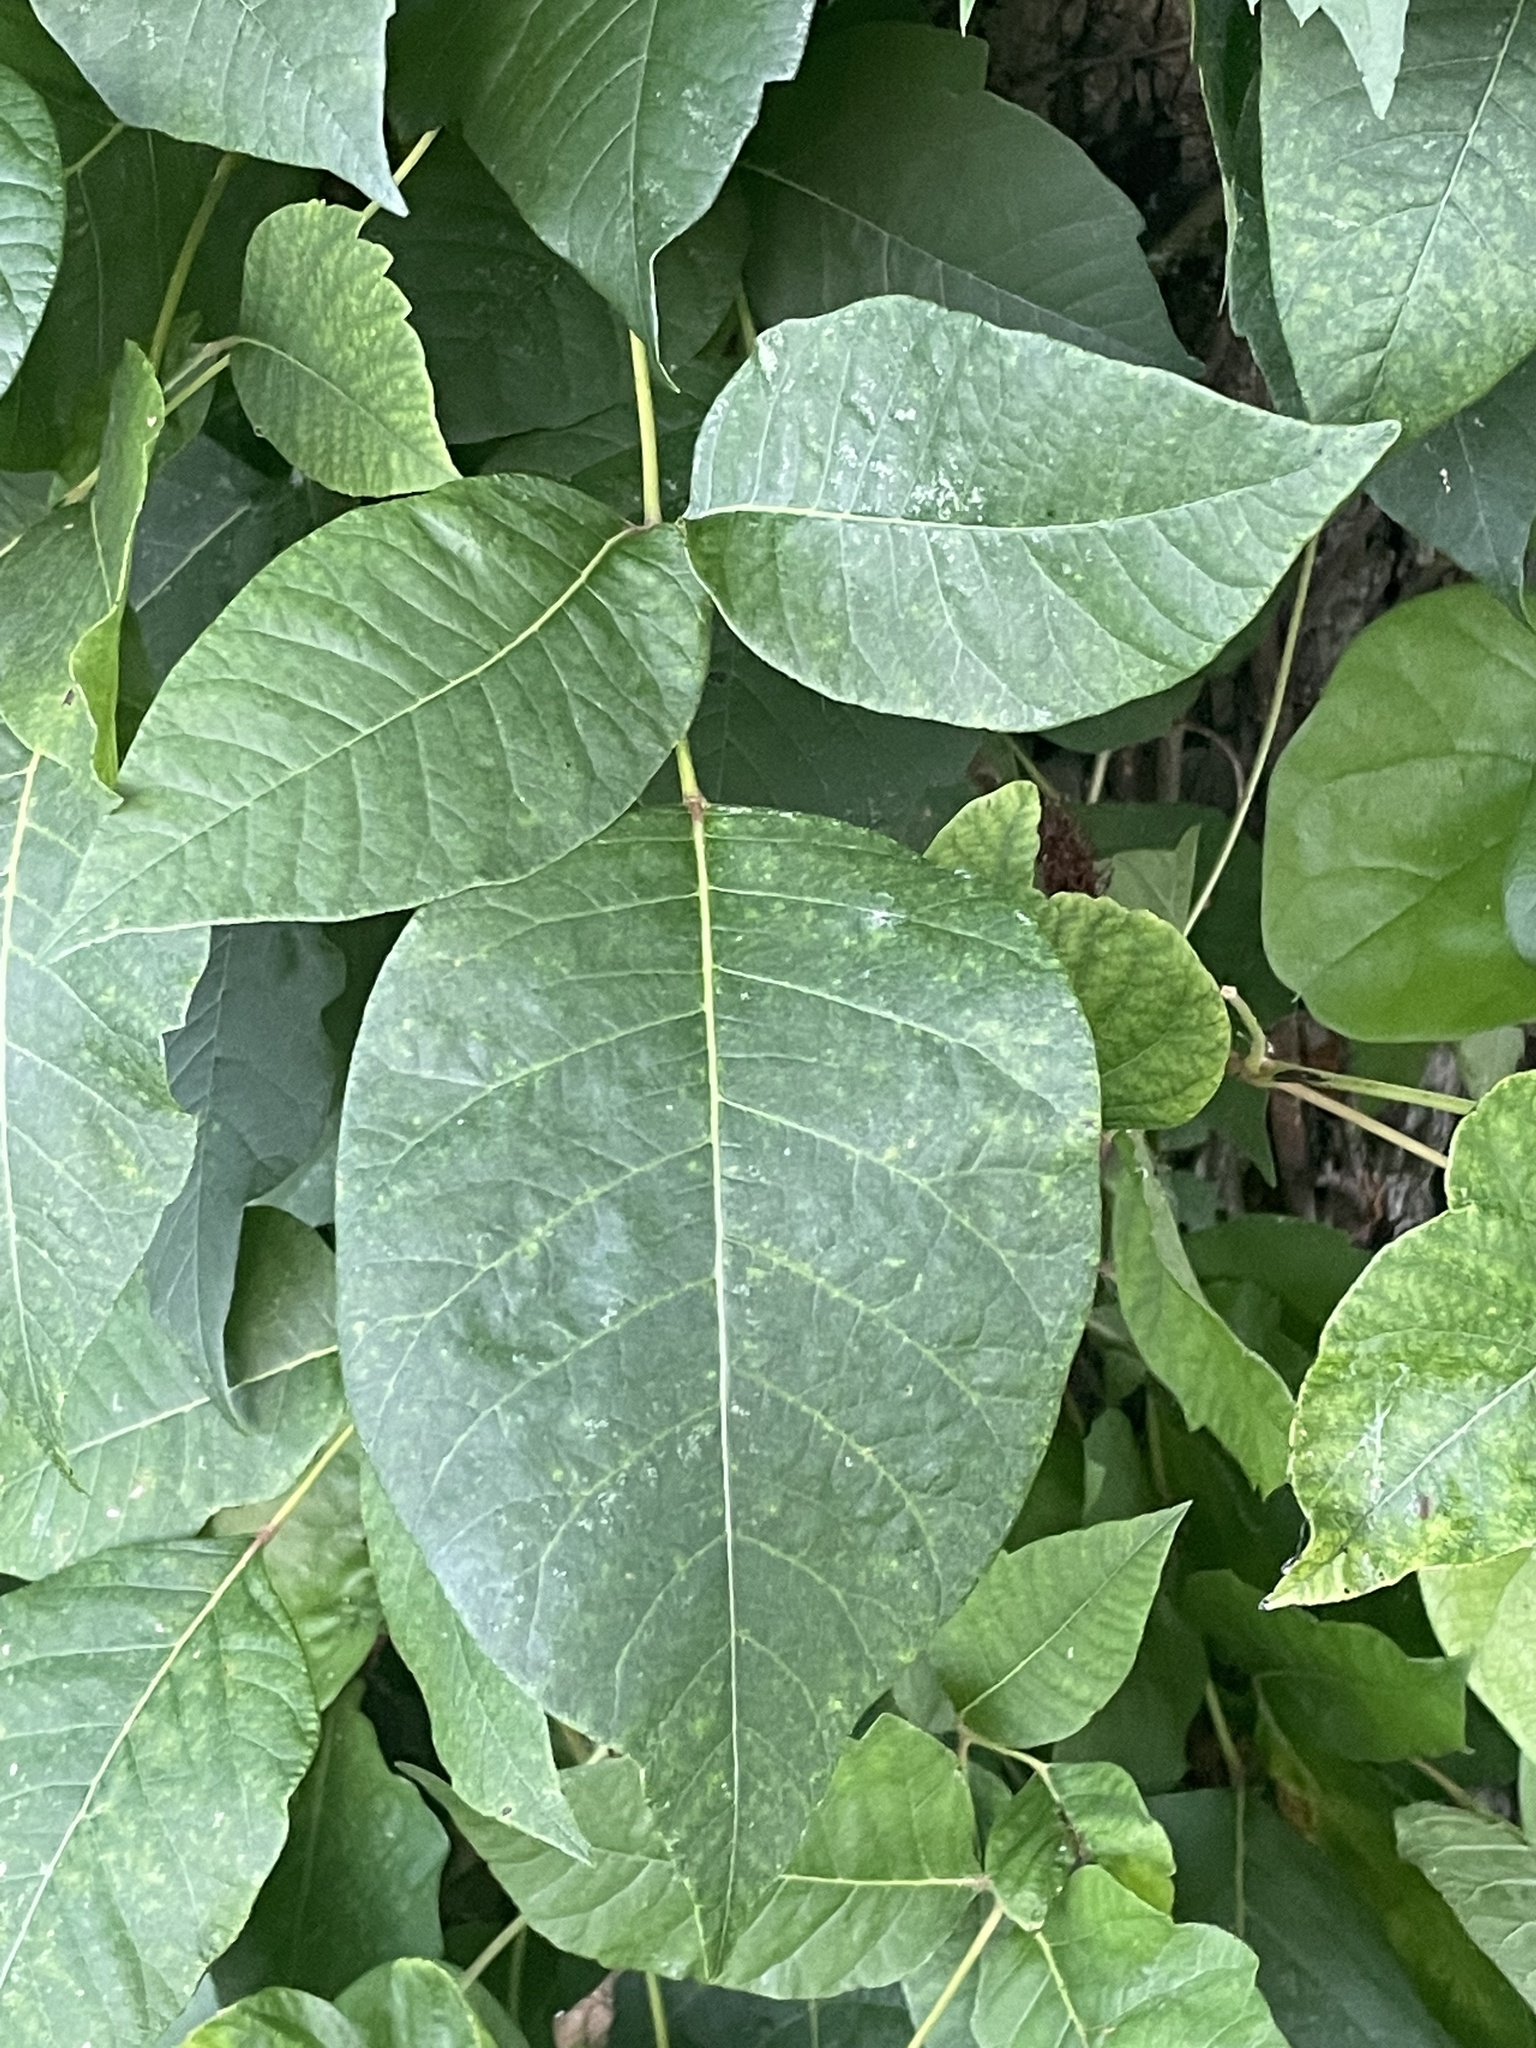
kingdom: Plantae
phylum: Tracheophyta
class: Magnoliopsida
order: Sapindales
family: Anacardiaceae
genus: Toxicodendron
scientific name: Toxicodendron radicans
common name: Poison ivy
